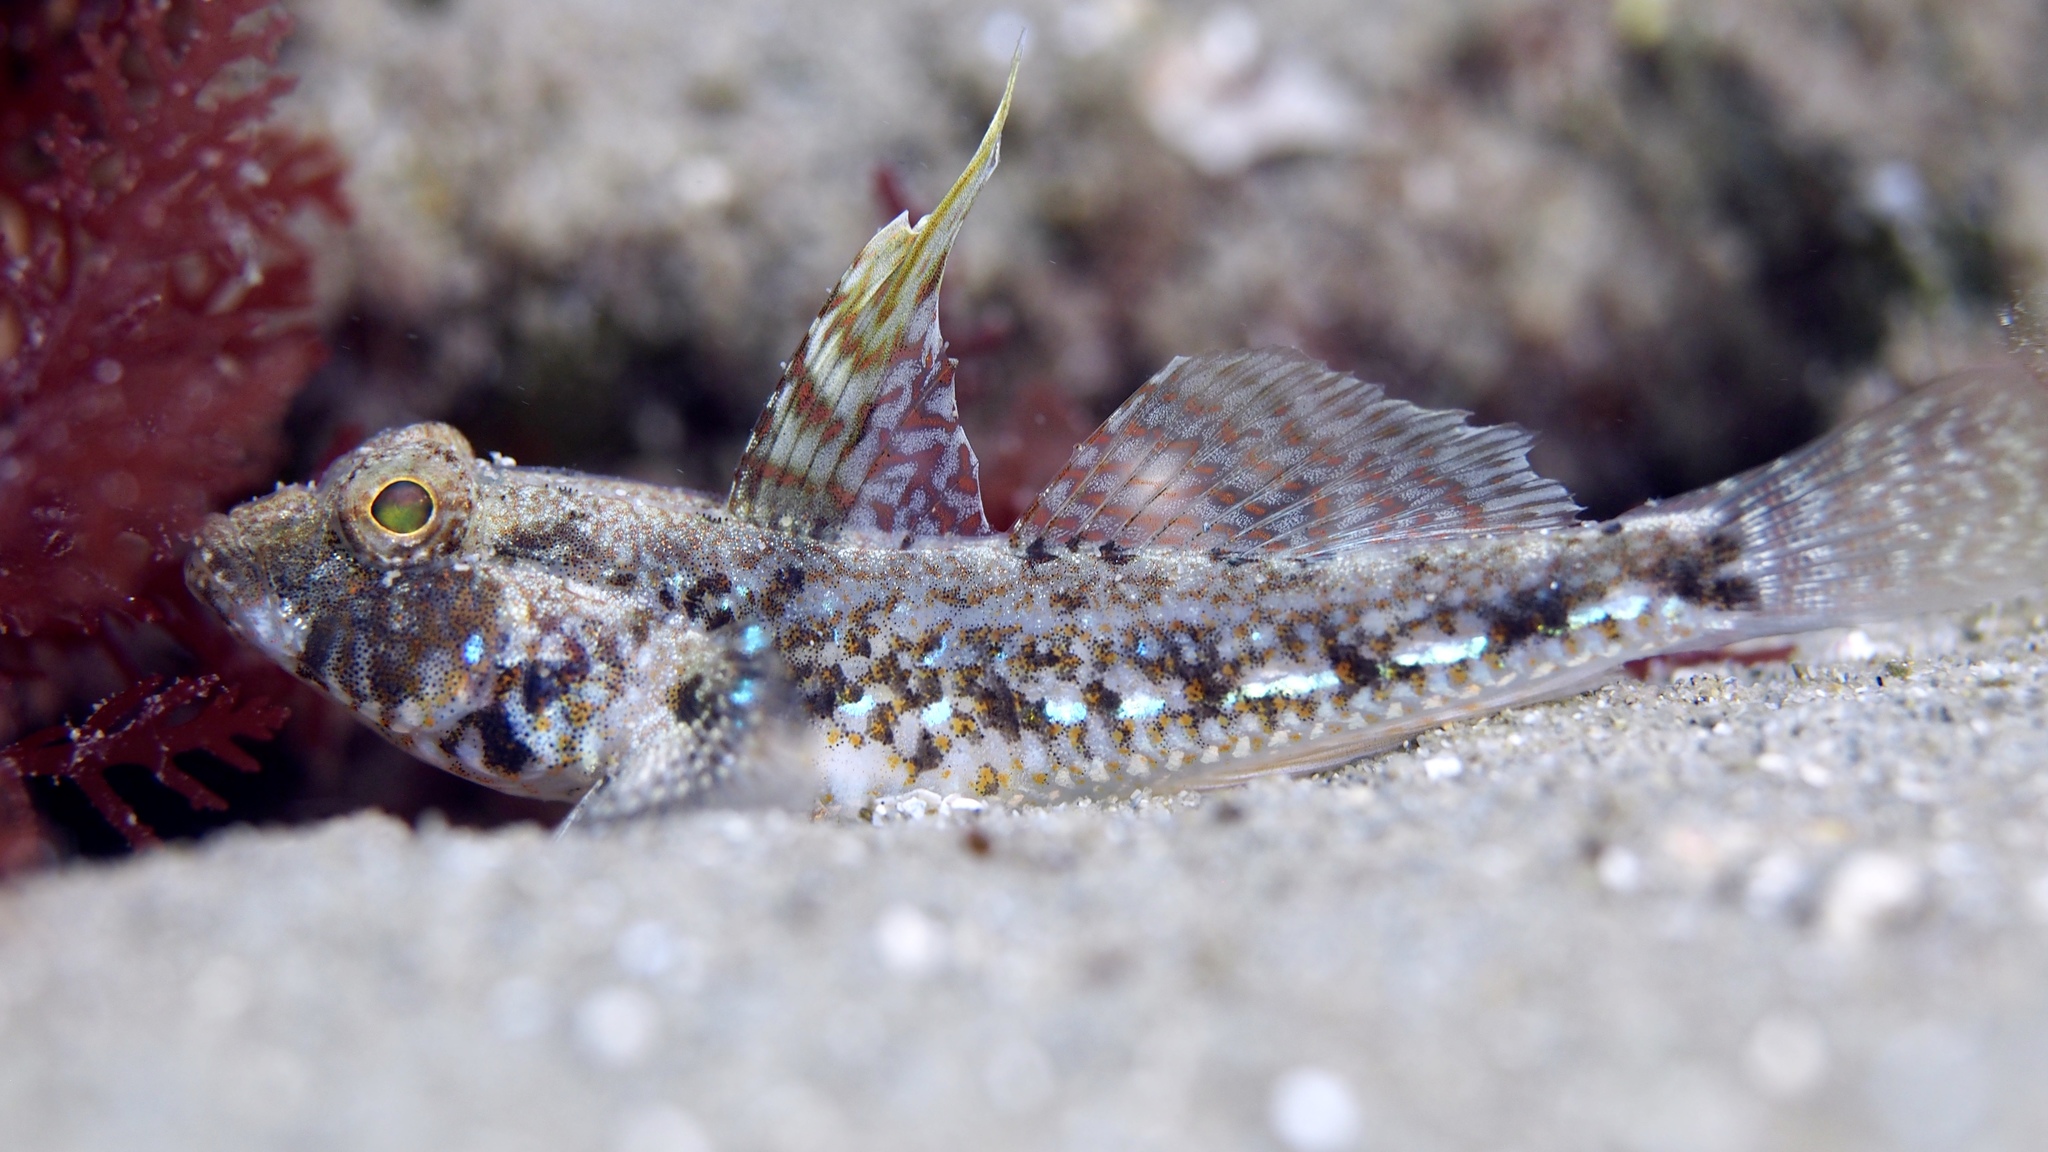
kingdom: Animalia
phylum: Chordata
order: Perciformes
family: Gobiidae
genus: Nesogobius
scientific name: Nesogobius pulchellus
